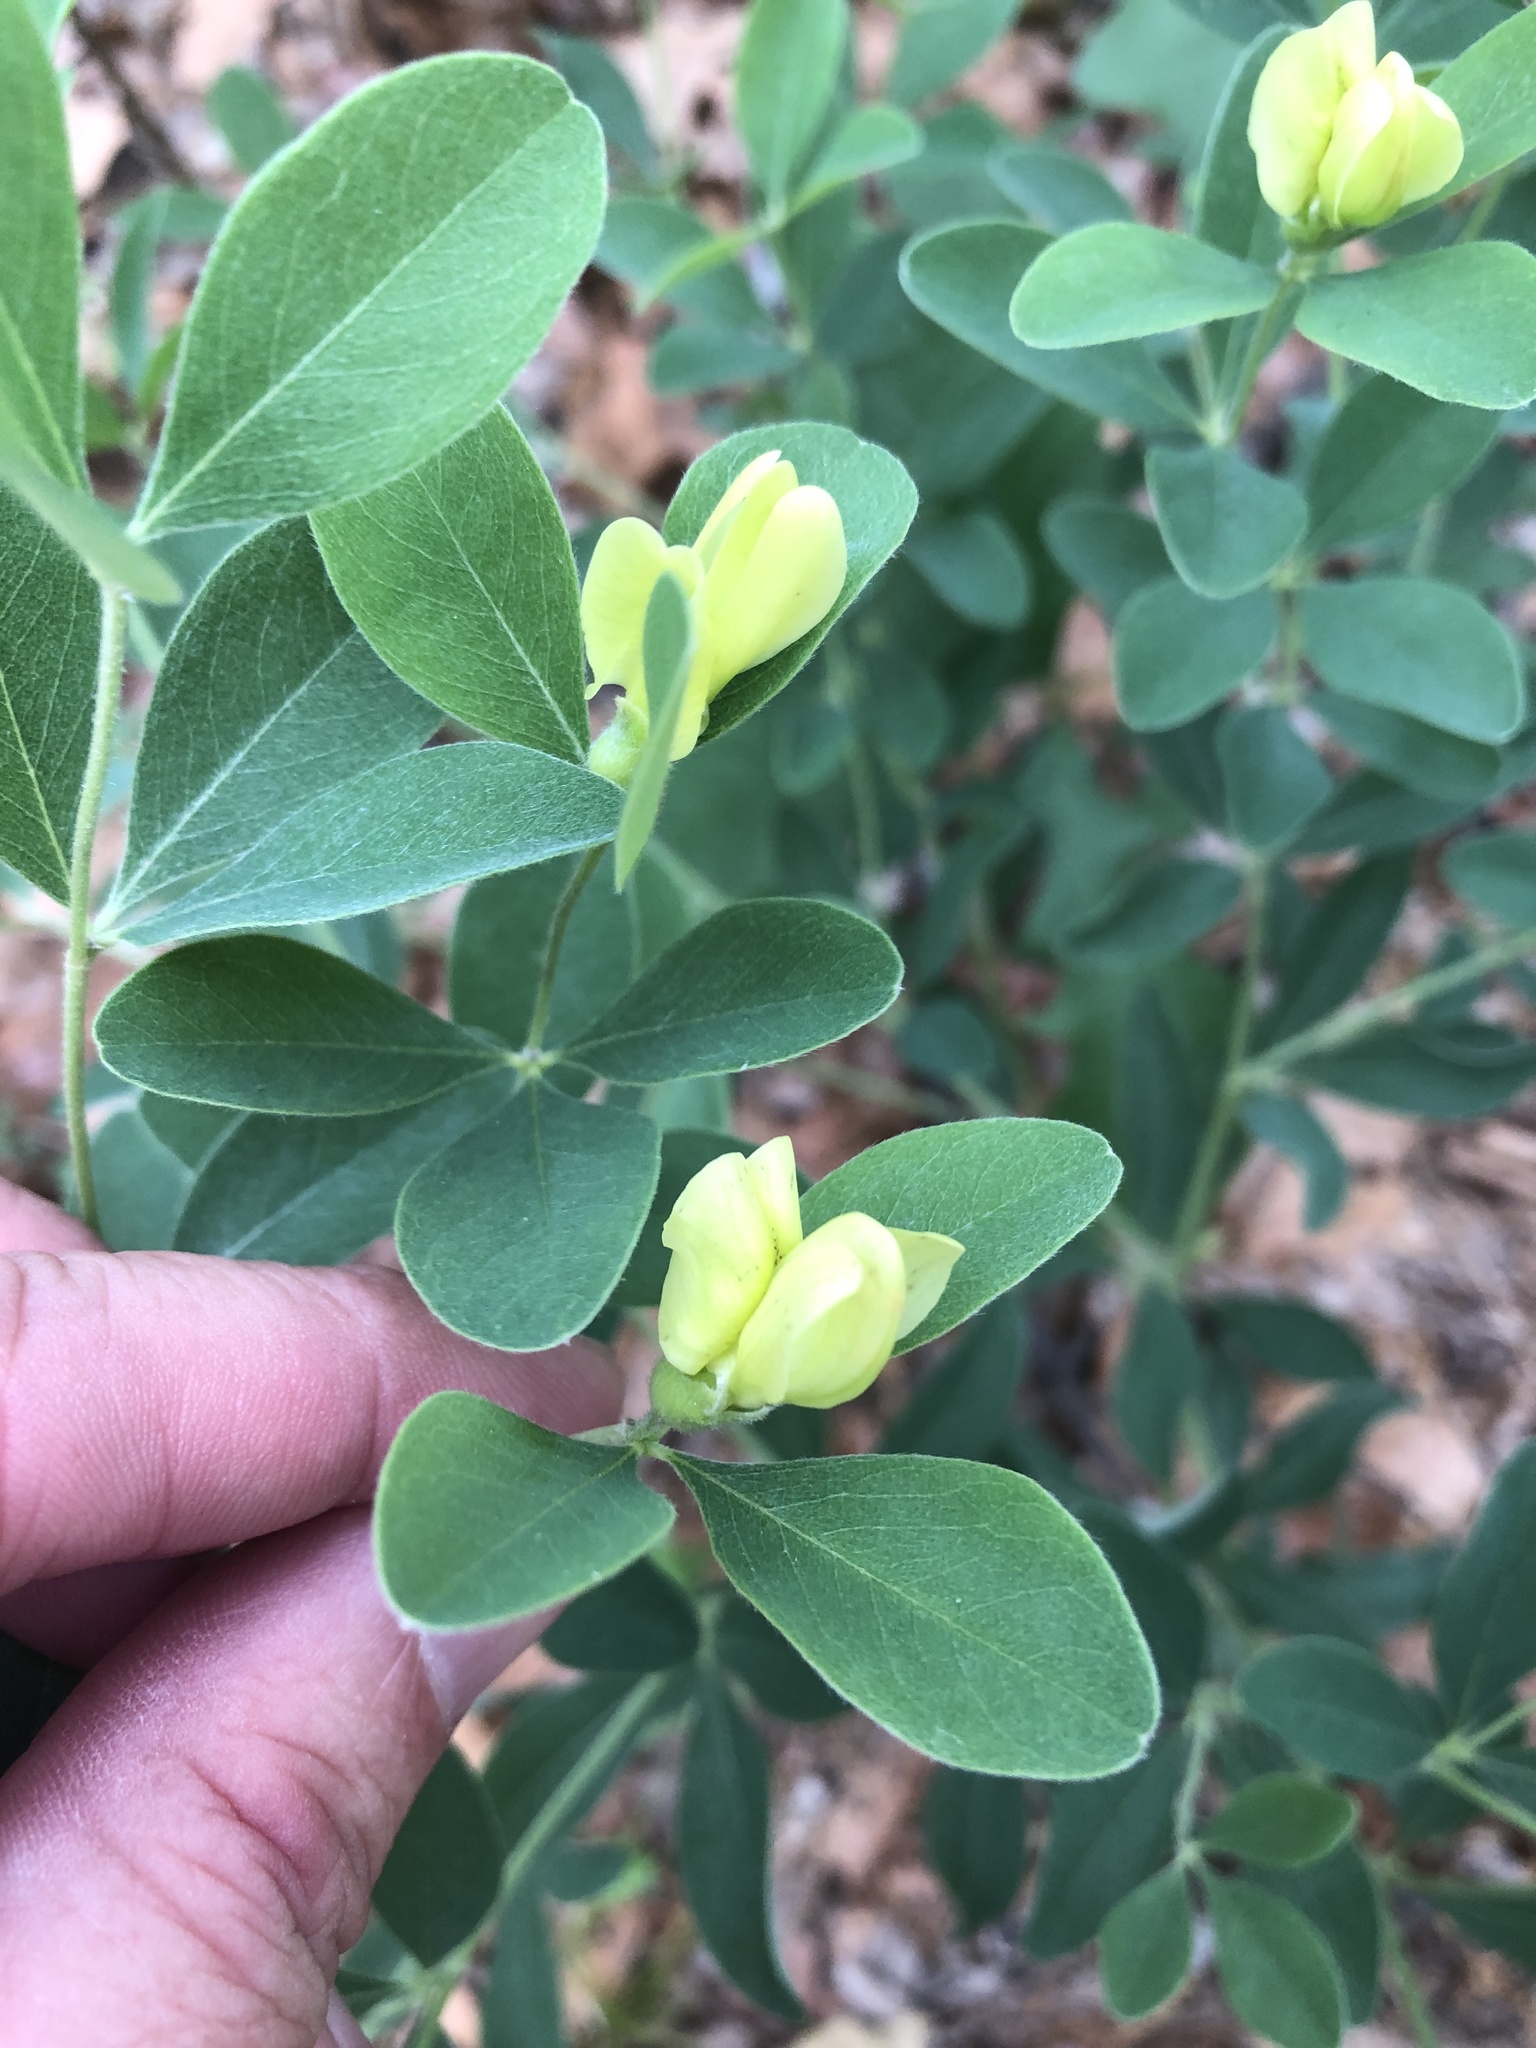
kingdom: Plantae
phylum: Tracheophyta
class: Magnoliopsida
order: Fabales
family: Fabaceae
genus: Baptisia
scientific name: Baptisia nuttalliana
